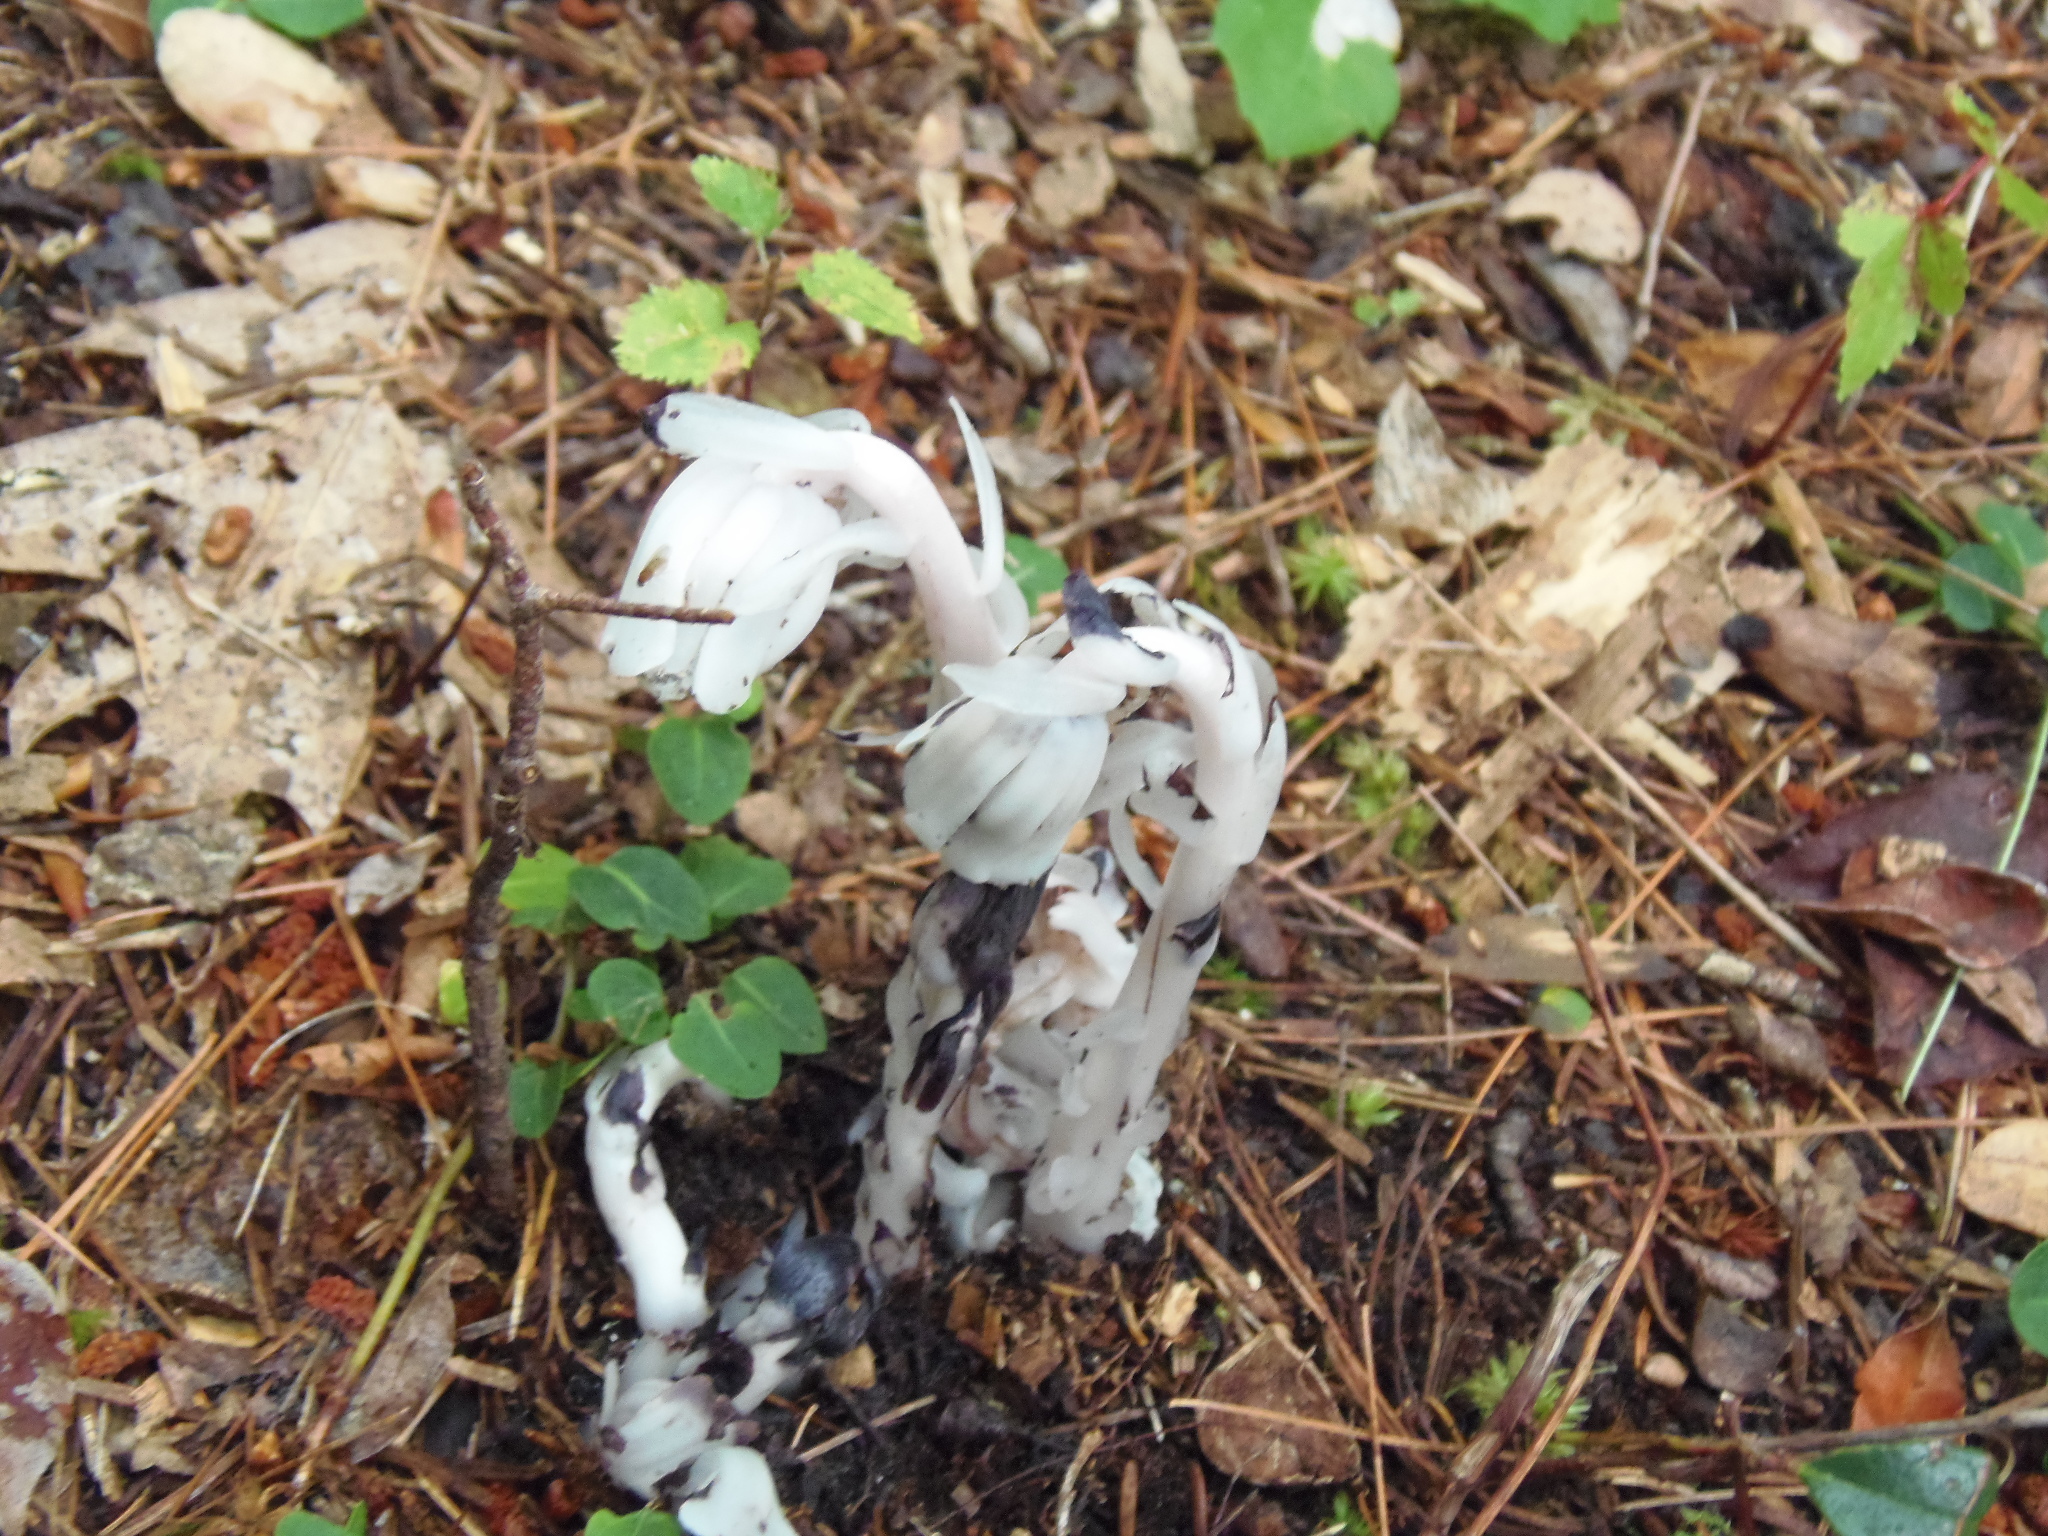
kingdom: Plantae
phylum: Tracheophyta
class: Magnoliopsida
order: Ericales
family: Ericaceae
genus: Monotropa
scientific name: Monotropa uniflora
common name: Convulsion root
